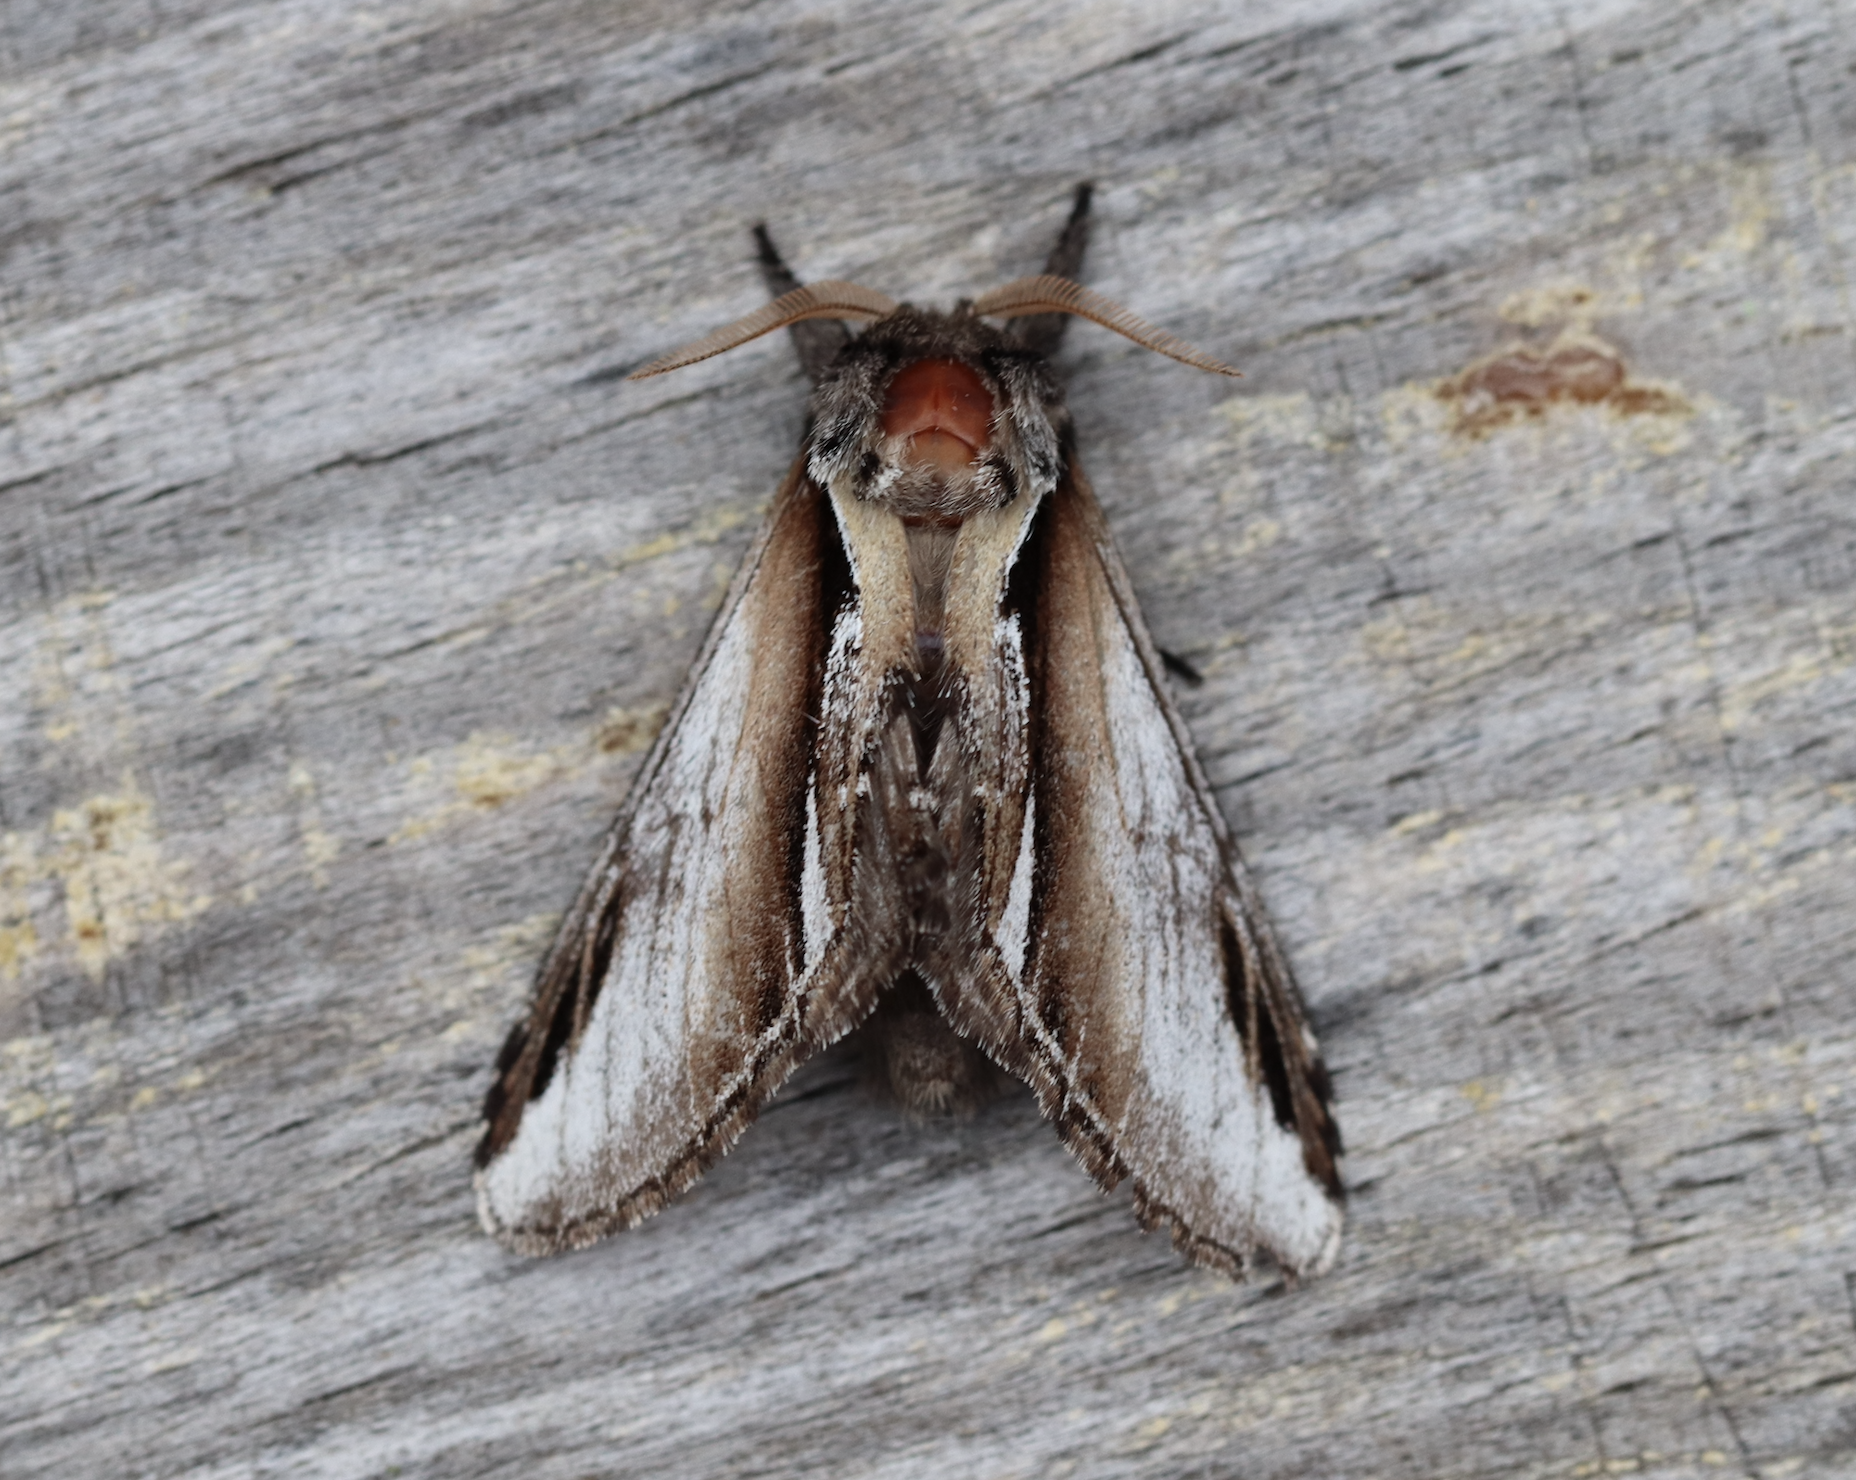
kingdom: Animalia
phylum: Arthropoda
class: Insecta
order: Lepidoptera
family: Notodontidae
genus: Pheosia
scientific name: Pheosia gnoma
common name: Lesser swallow prominent
